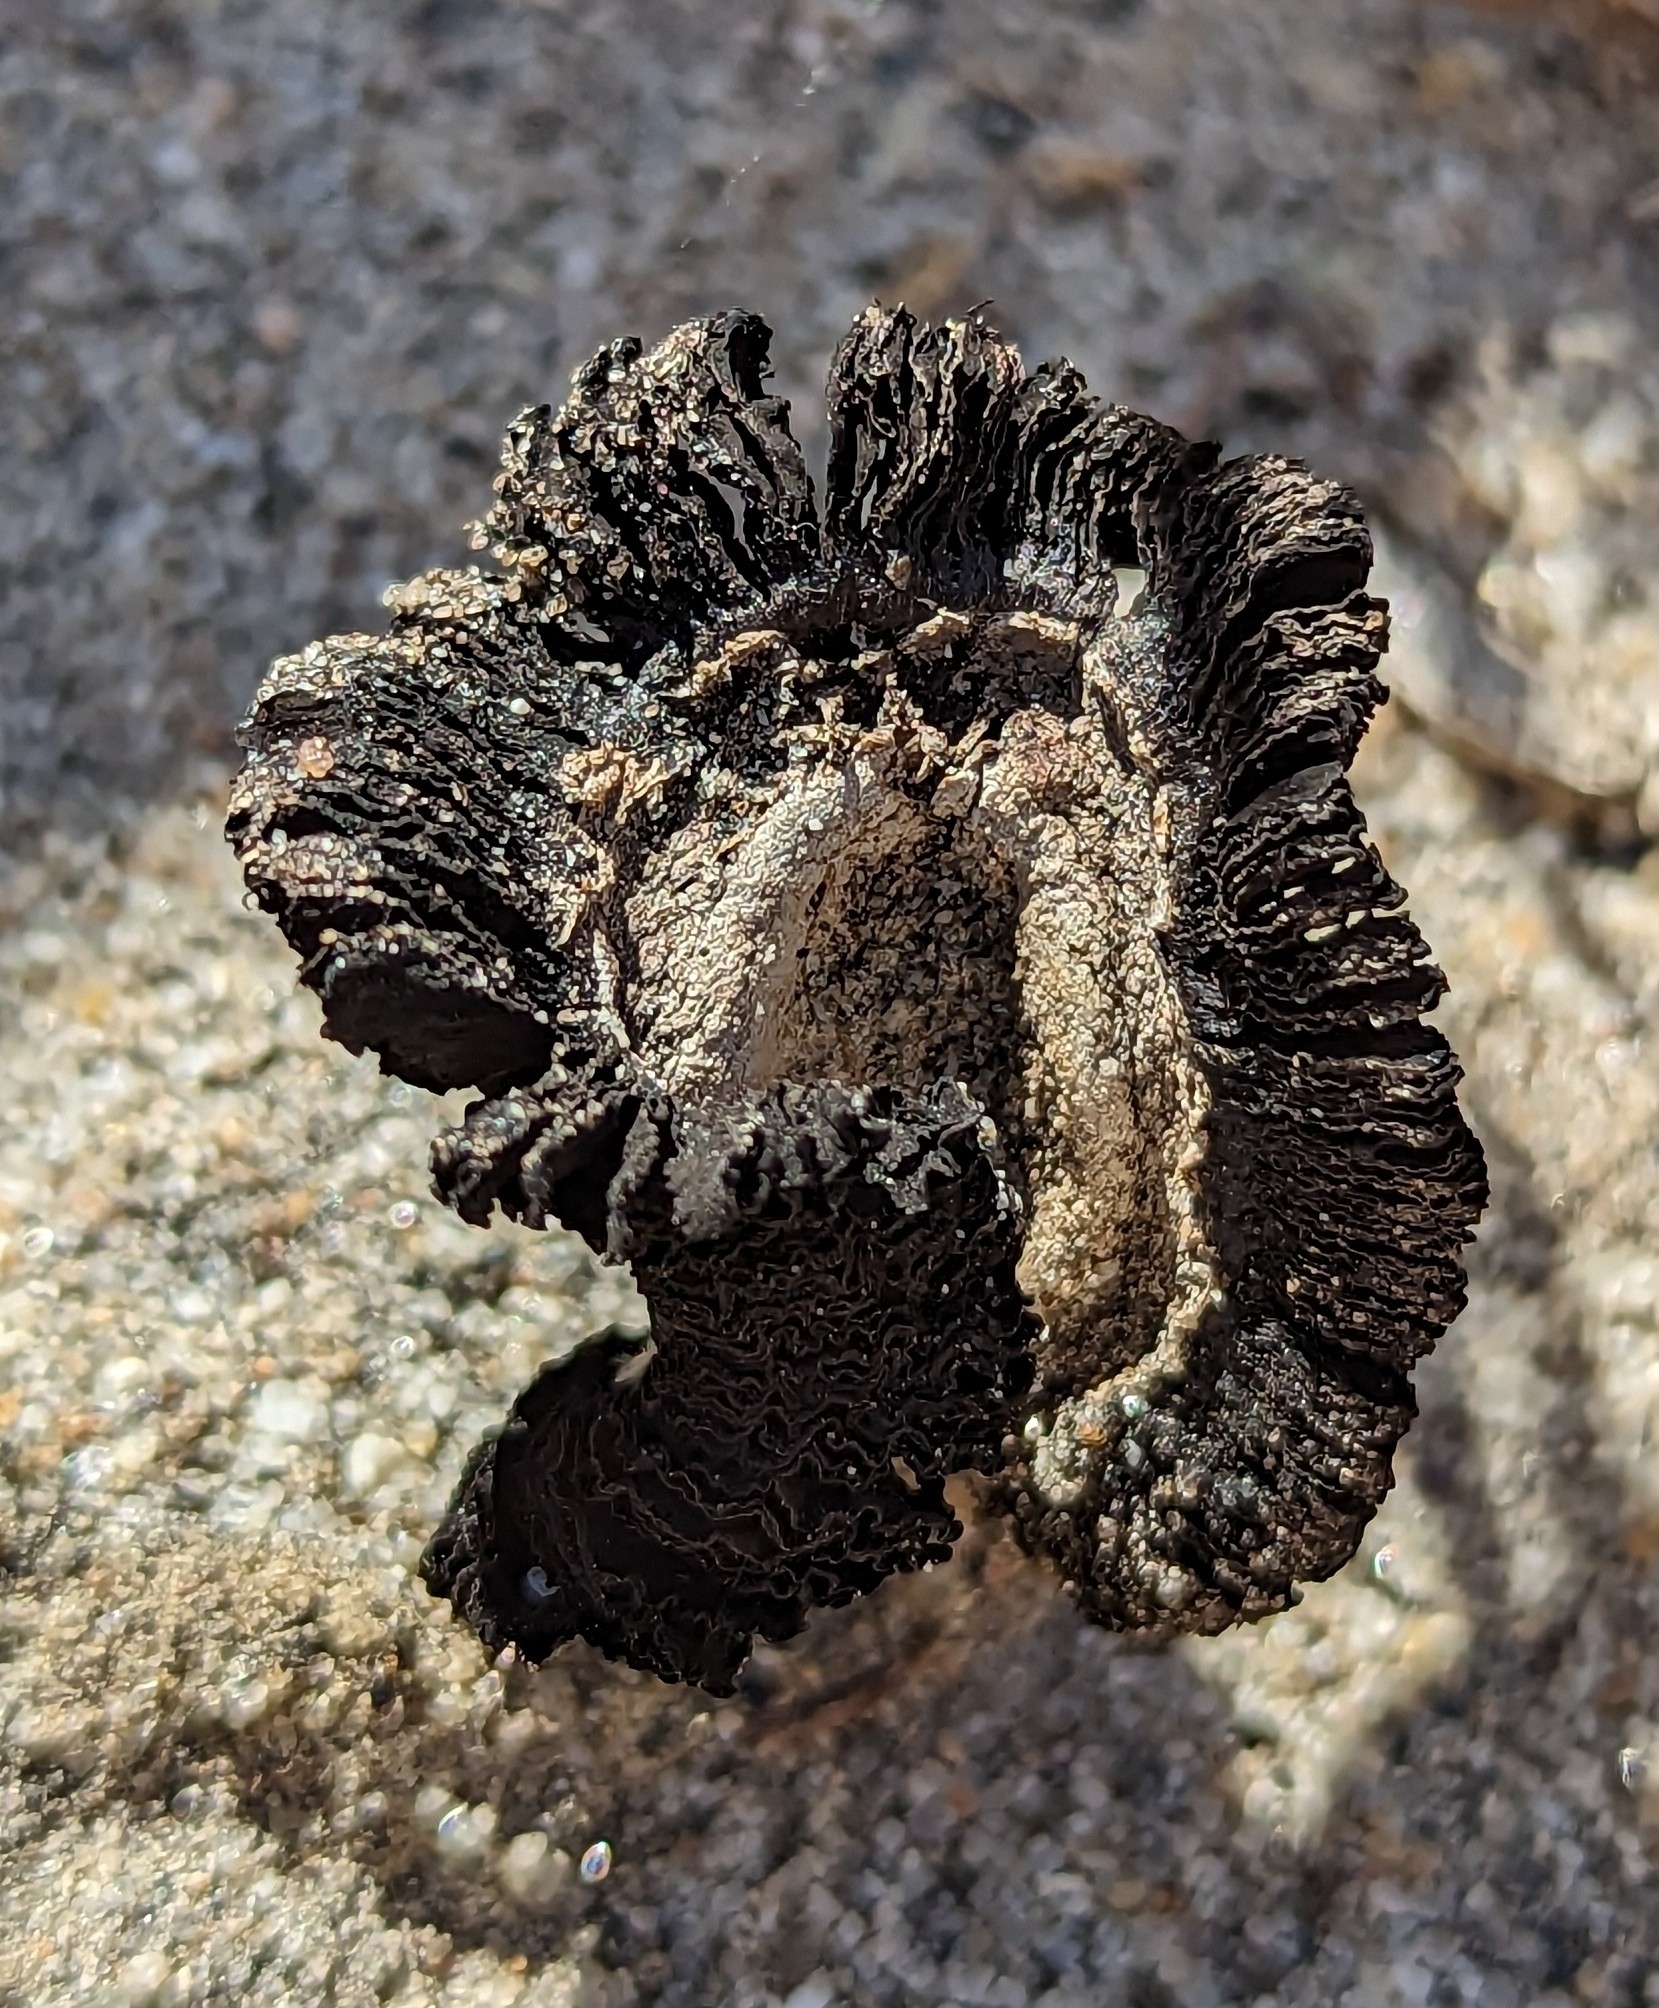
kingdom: Fungi
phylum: Basidiomycota
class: Agaricomycetes
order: Agaricales
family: Agaricaceae
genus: Montagnea
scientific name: Montagnea arenaria
